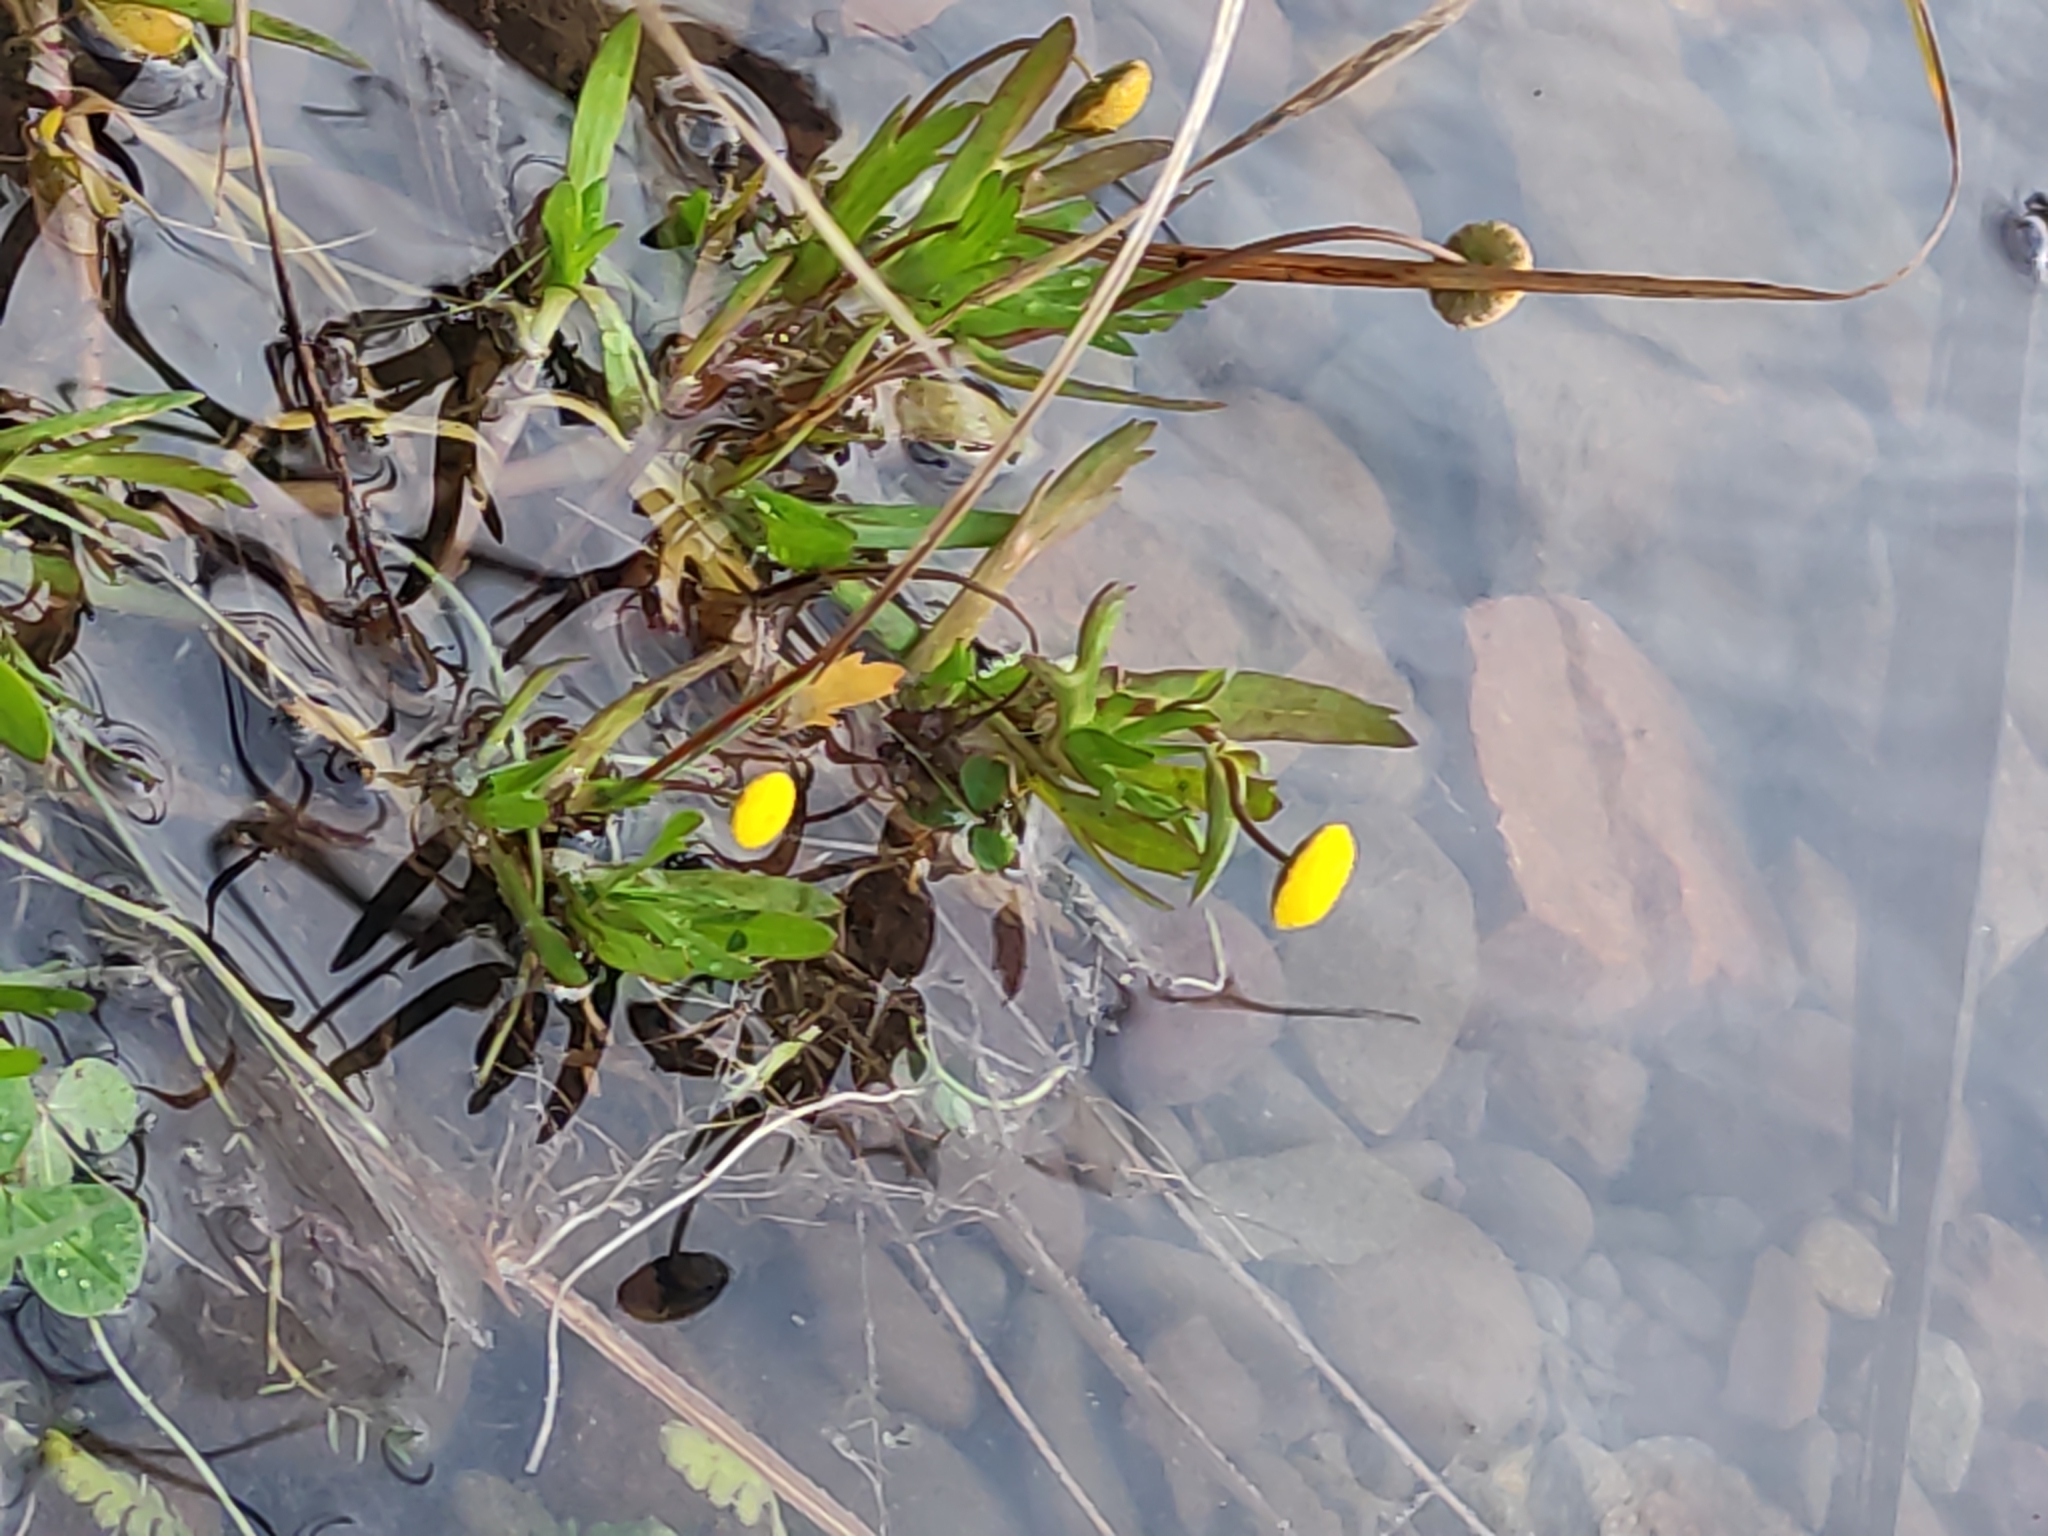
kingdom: Plantae
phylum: Tracheophyta
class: Magnoliopsida
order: Asterales
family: Asteraceae
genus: Cotula
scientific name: Cotula coronopifolia
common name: Buttonweed
